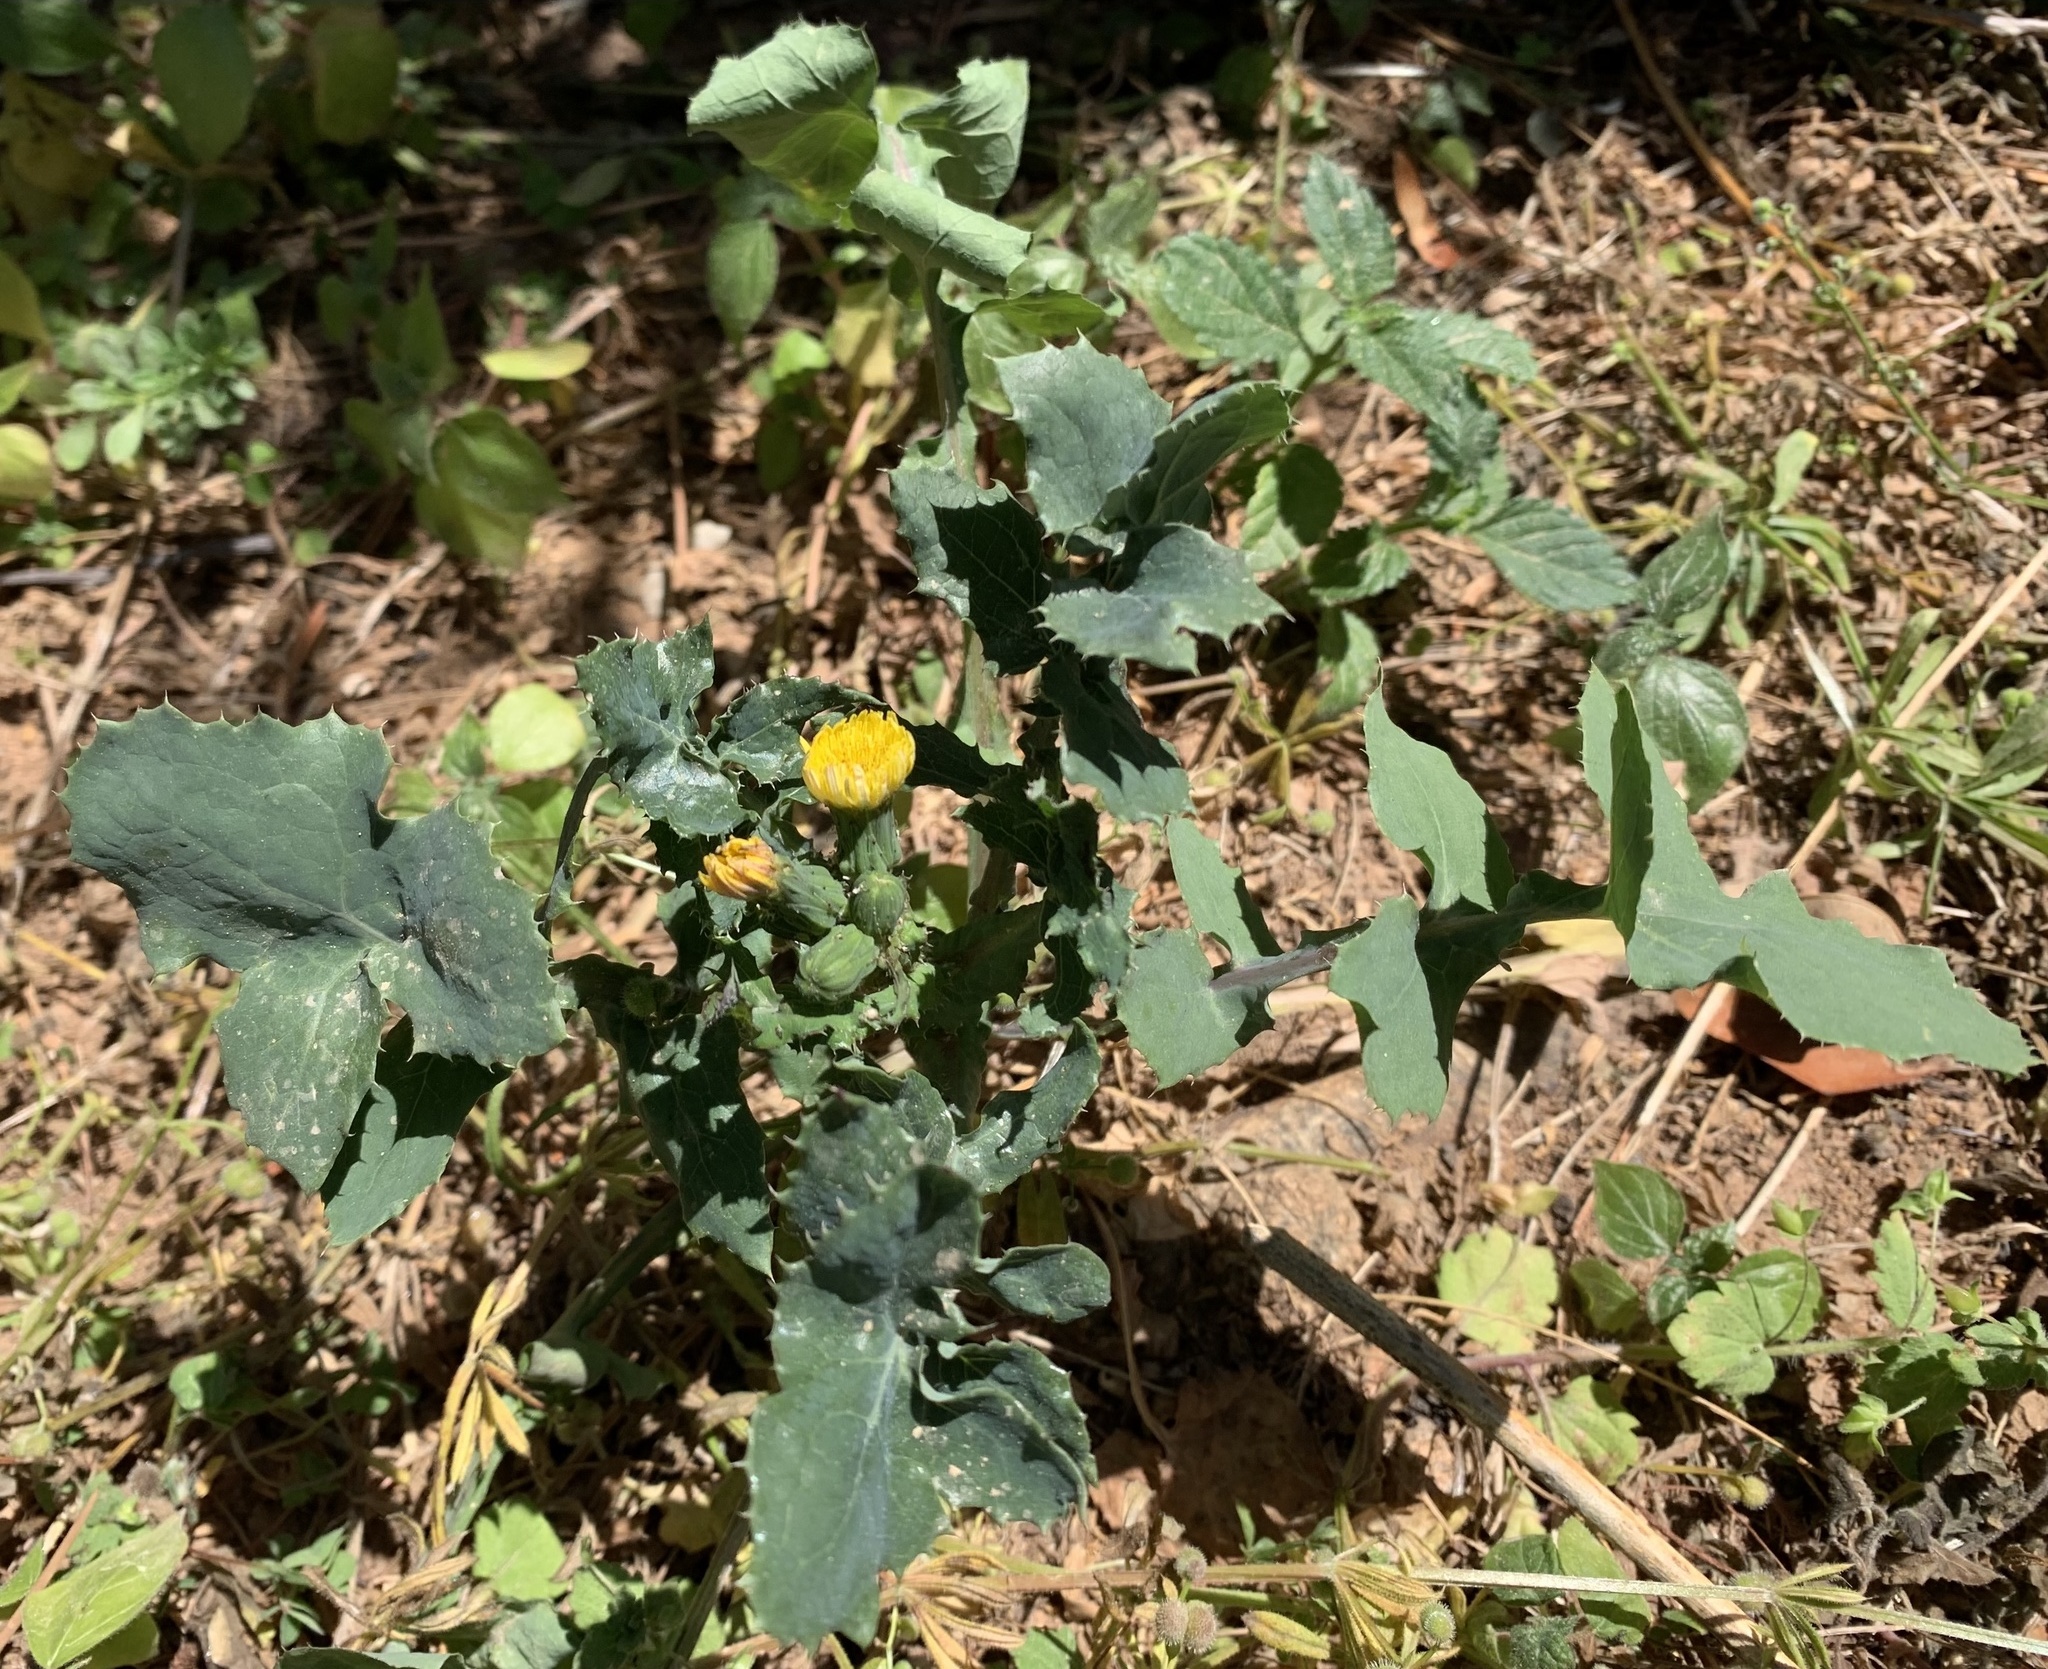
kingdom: Plantae
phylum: Tracheophyta
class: Magnoliopsida
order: Asterales
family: Asteraceae
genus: Sonchus
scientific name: Sonchus oleraceus
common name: Common sowthistle
